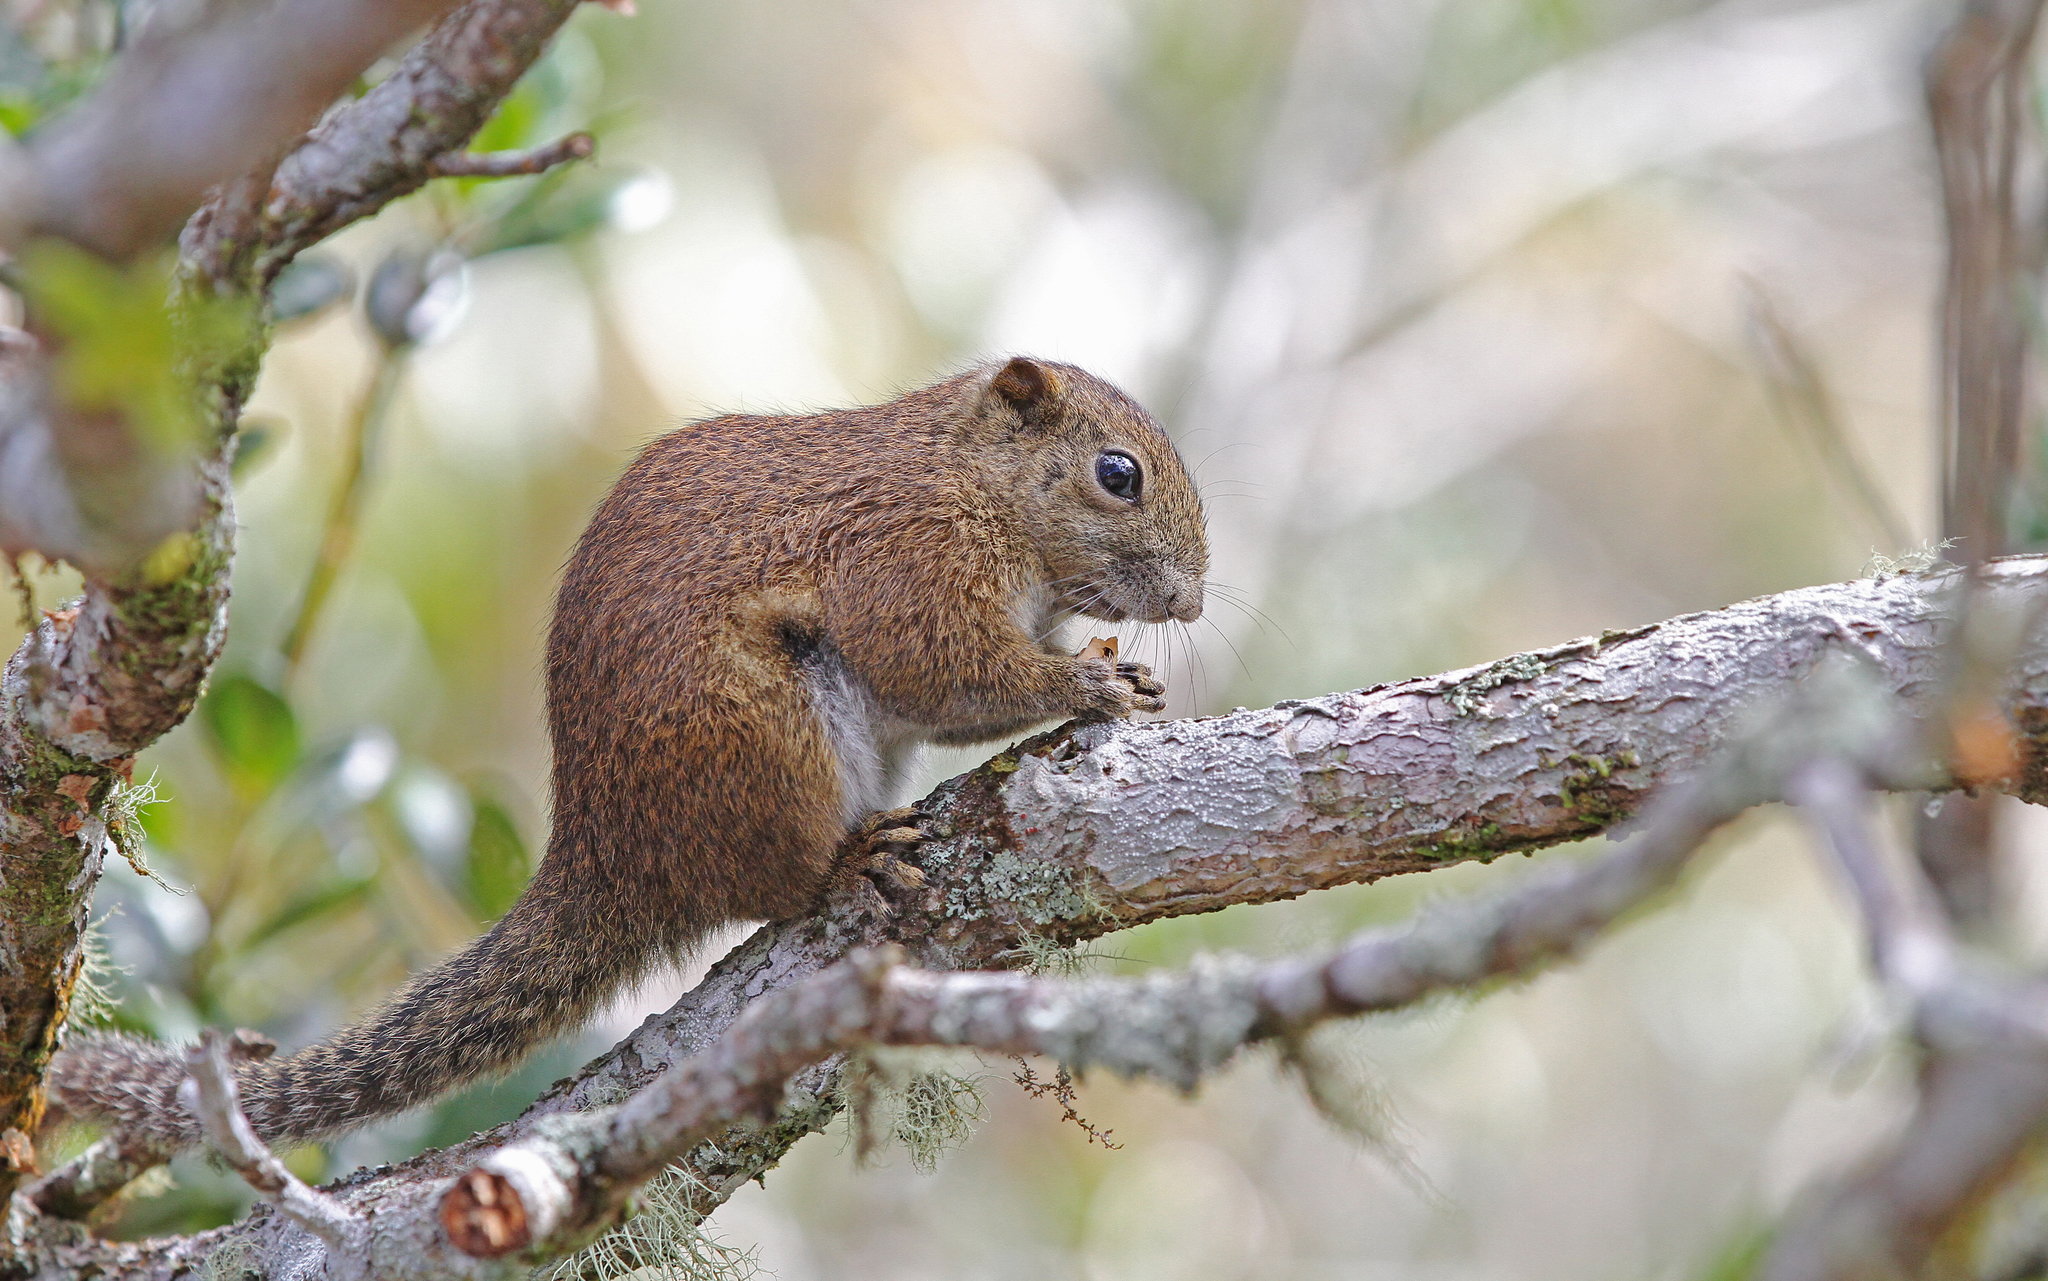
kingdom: Animalia
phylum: Chordata
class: Mammalia
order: Rodentia
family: Sciuridae
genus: Callosciurus
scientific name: Callosciurus orestes
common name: Borneo black-banded squirrel
